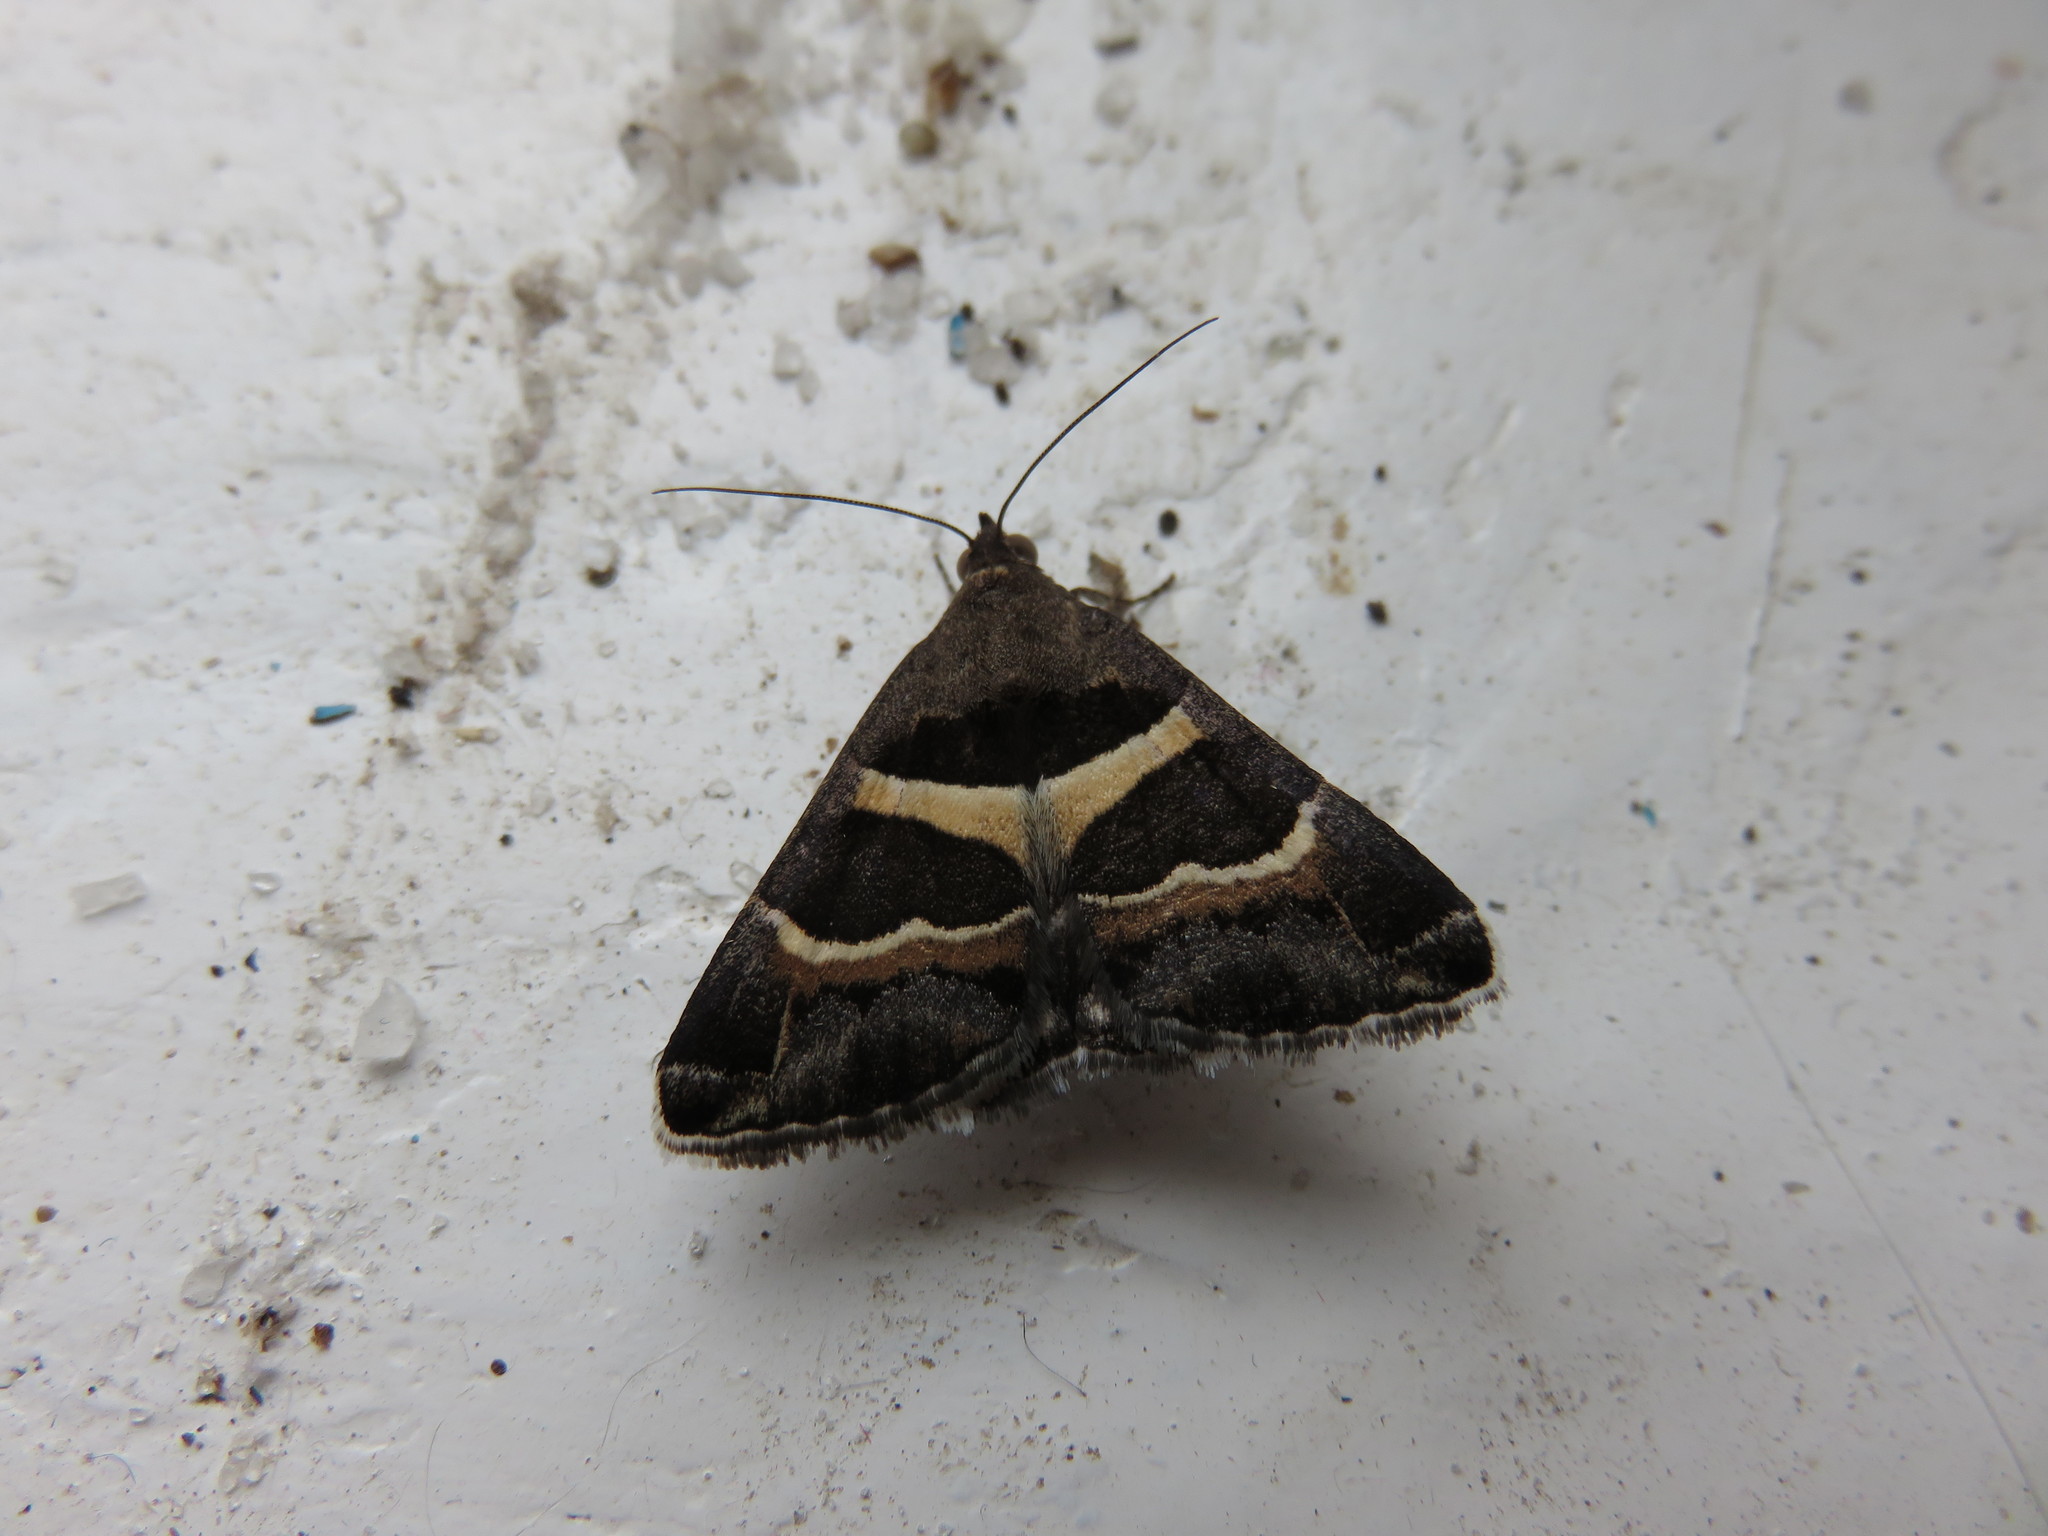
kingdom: Animalia
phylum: Arthropoda
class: Insecta
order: Lepidoptera
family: Erebidae
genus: Grammodes
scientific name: Grammodes stolida
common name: Geometrician
